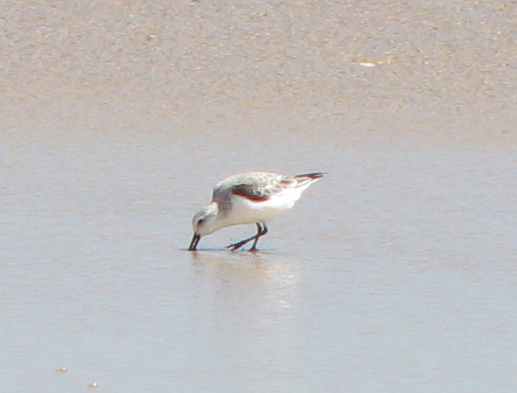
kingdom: Animalia
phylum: Chordata
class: Aves
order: Charadriiformes
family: Scolopacidae
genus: Calidris
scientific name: Calidris alba
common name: Sanderling
